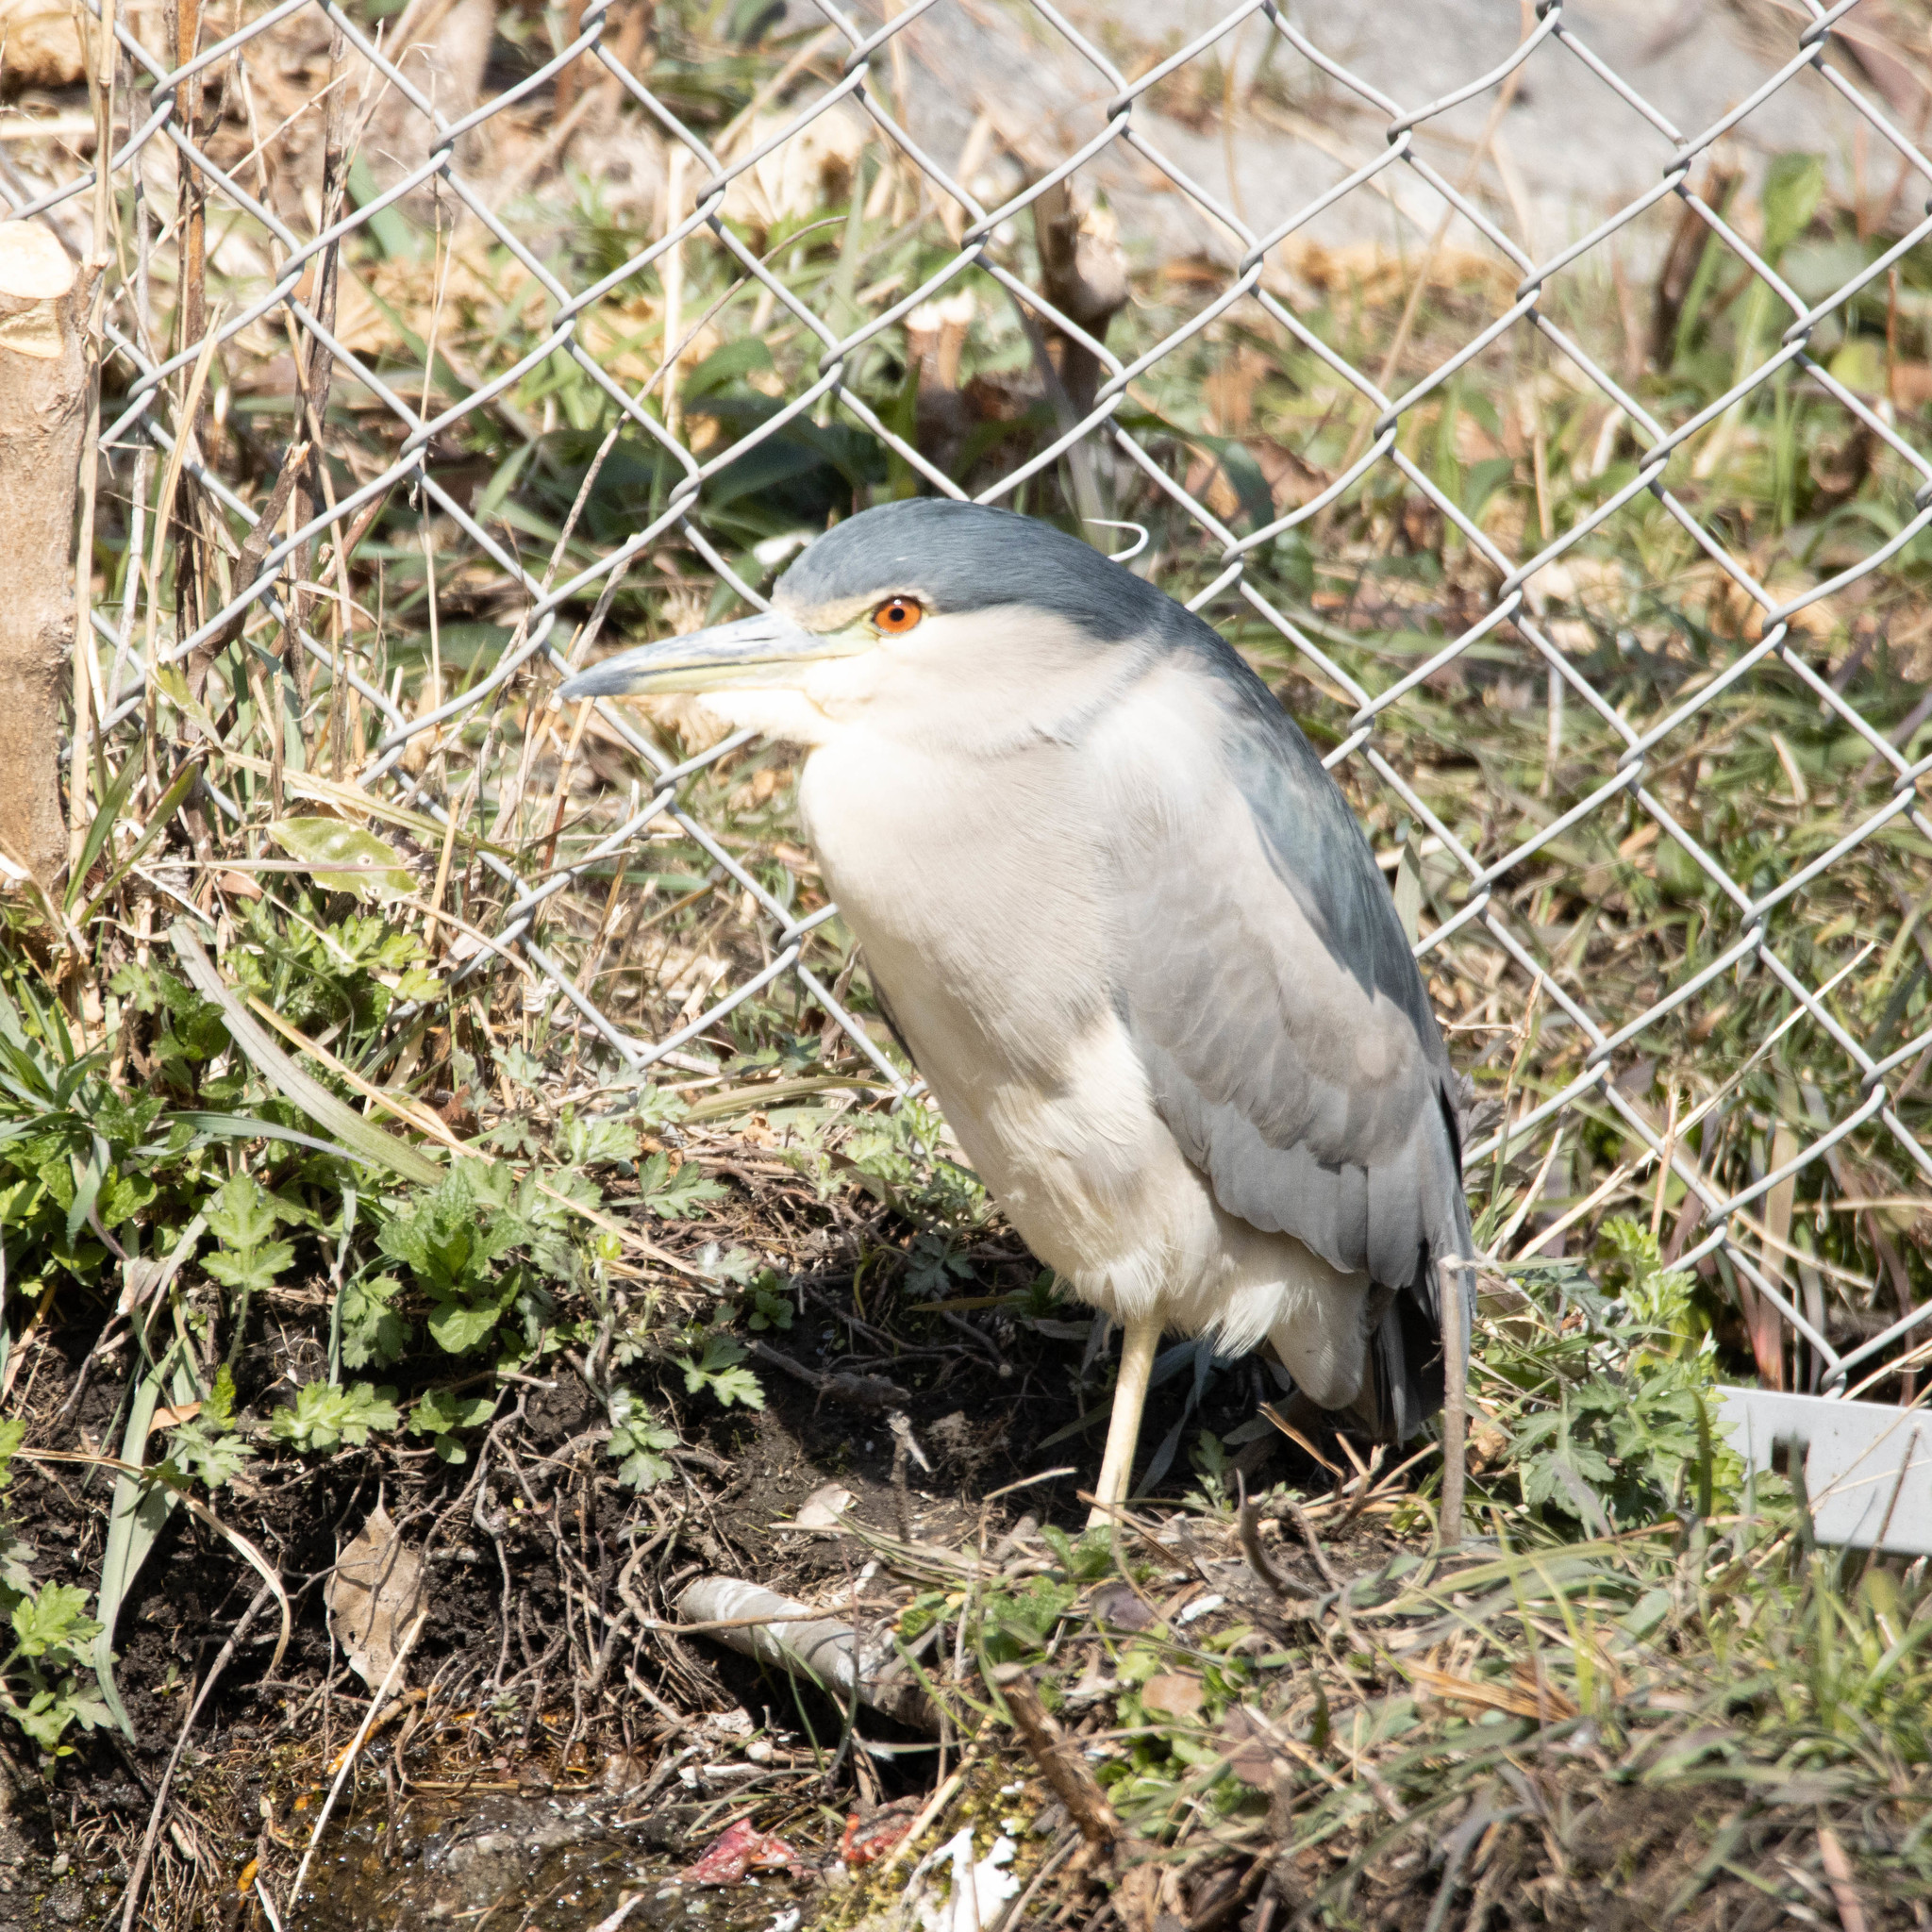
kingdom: Animalia
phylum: Chordata
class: Aves
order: Pelecaniformes
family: Ardeidae
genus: Nycticorax
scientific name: Nycticorax nycticorax
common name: Black-crowned night heron
